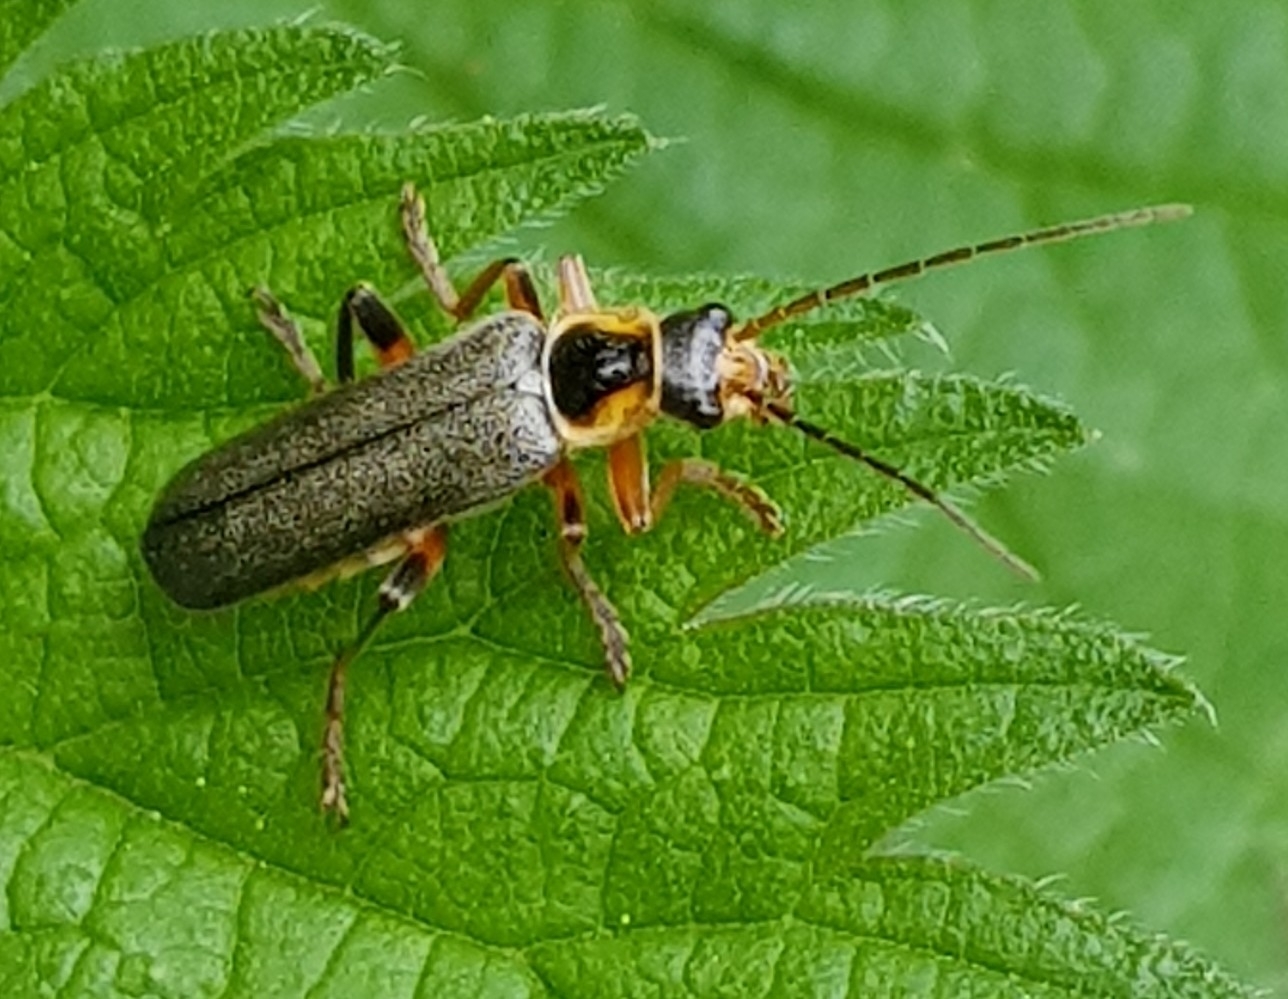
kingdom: Animalia
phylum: Arthropoda
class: Insecta
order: Coleoptera
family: Cantharidae
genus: Cantharis
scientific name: Cantharis nigricans
